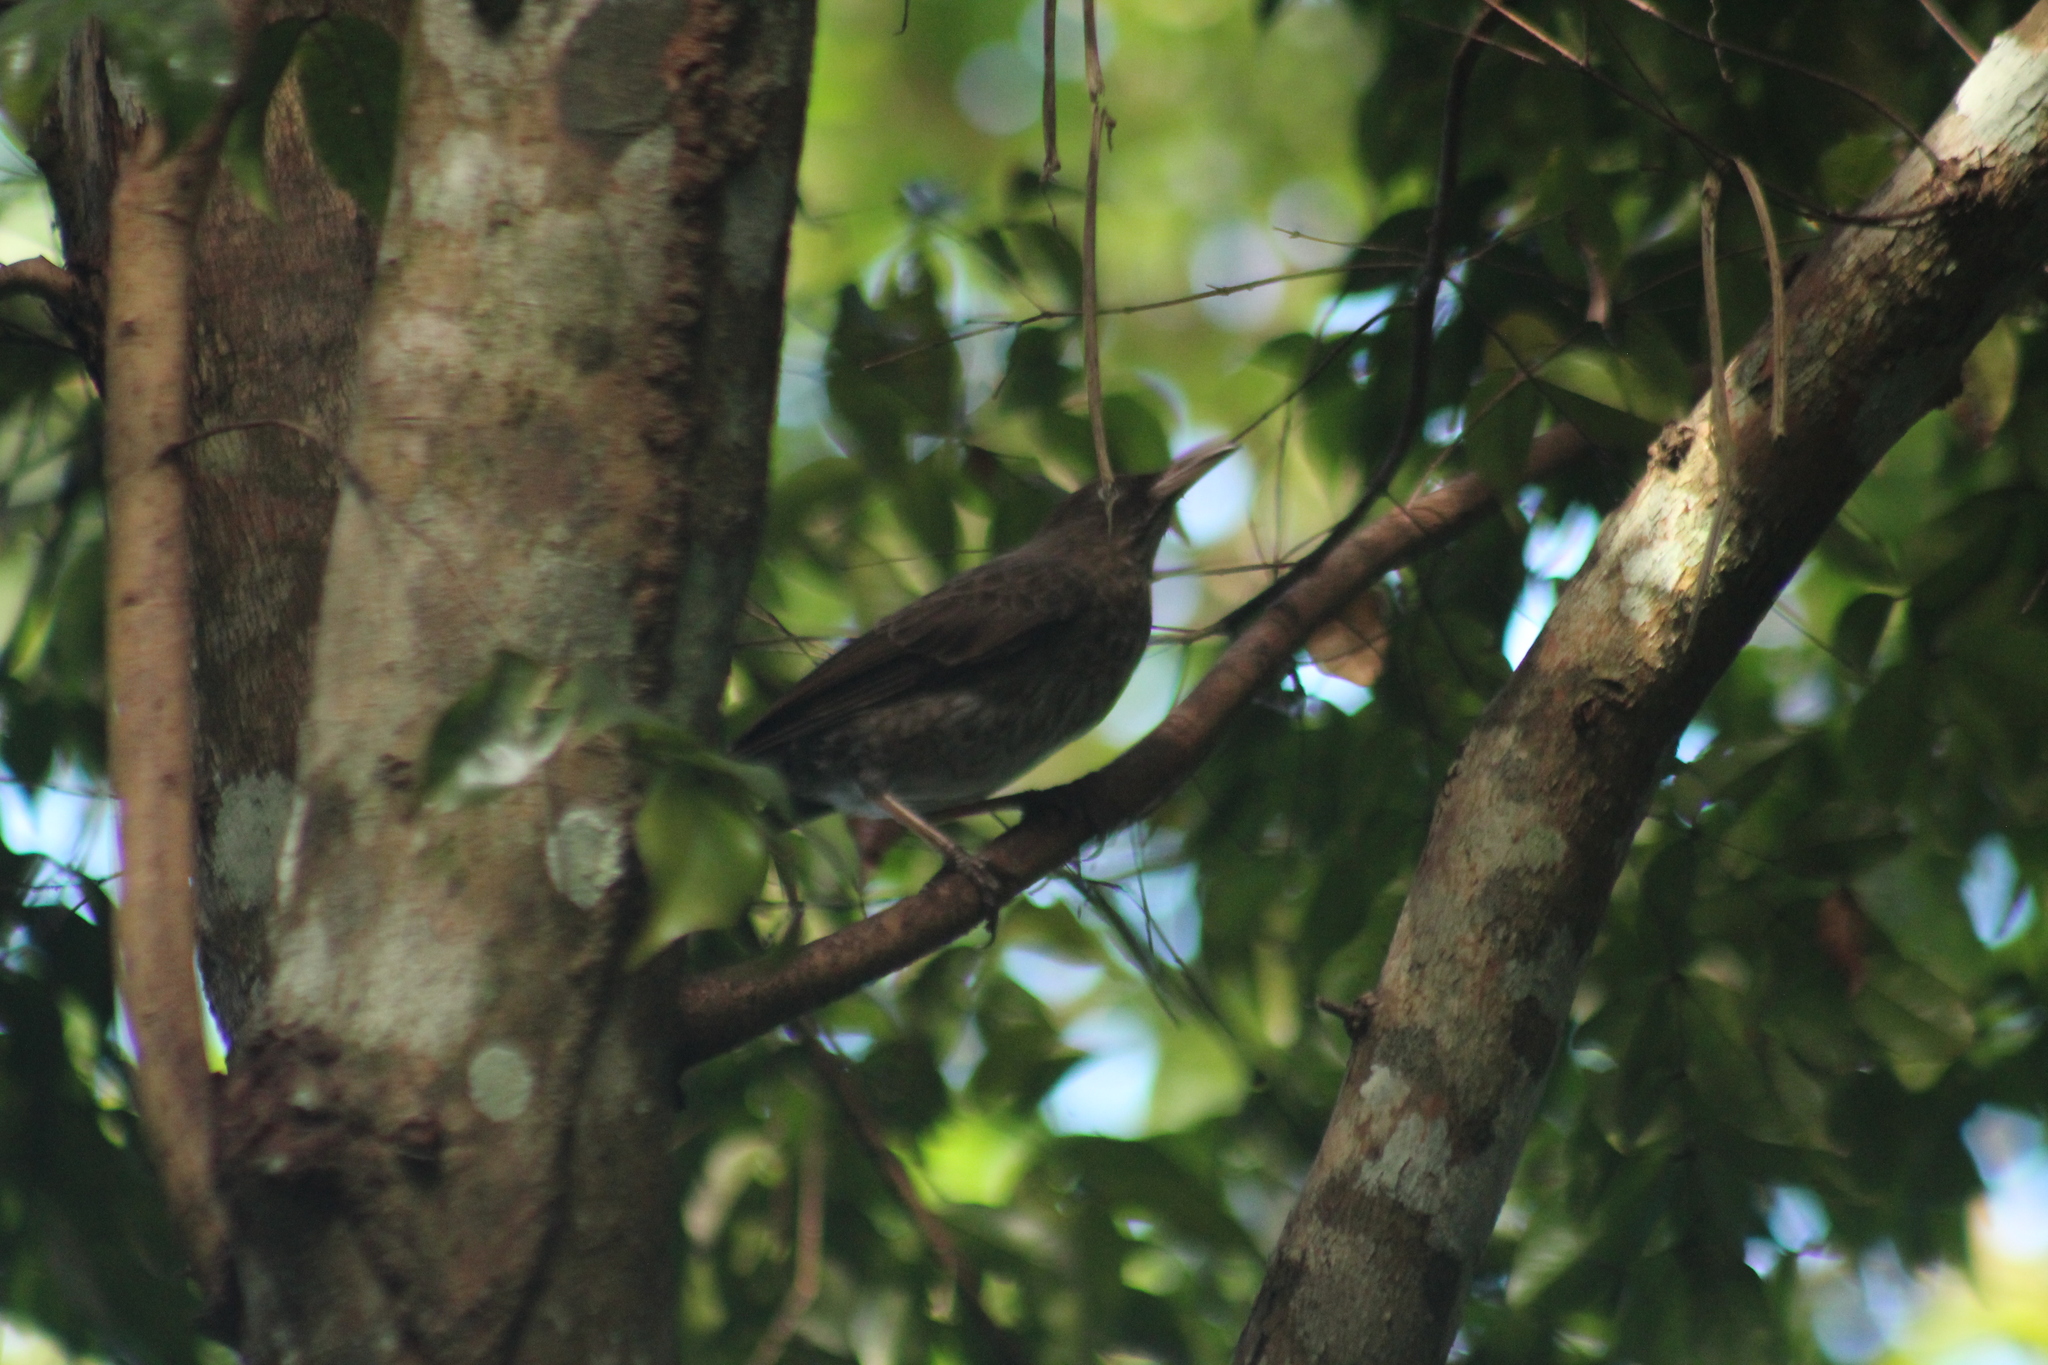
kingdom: Animalia
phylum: Chordata
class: Aves
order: Passeriformes
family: Mimidae
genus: Margarops
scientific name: Margarops fuscatus
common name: Pearly-eyed thrasher
